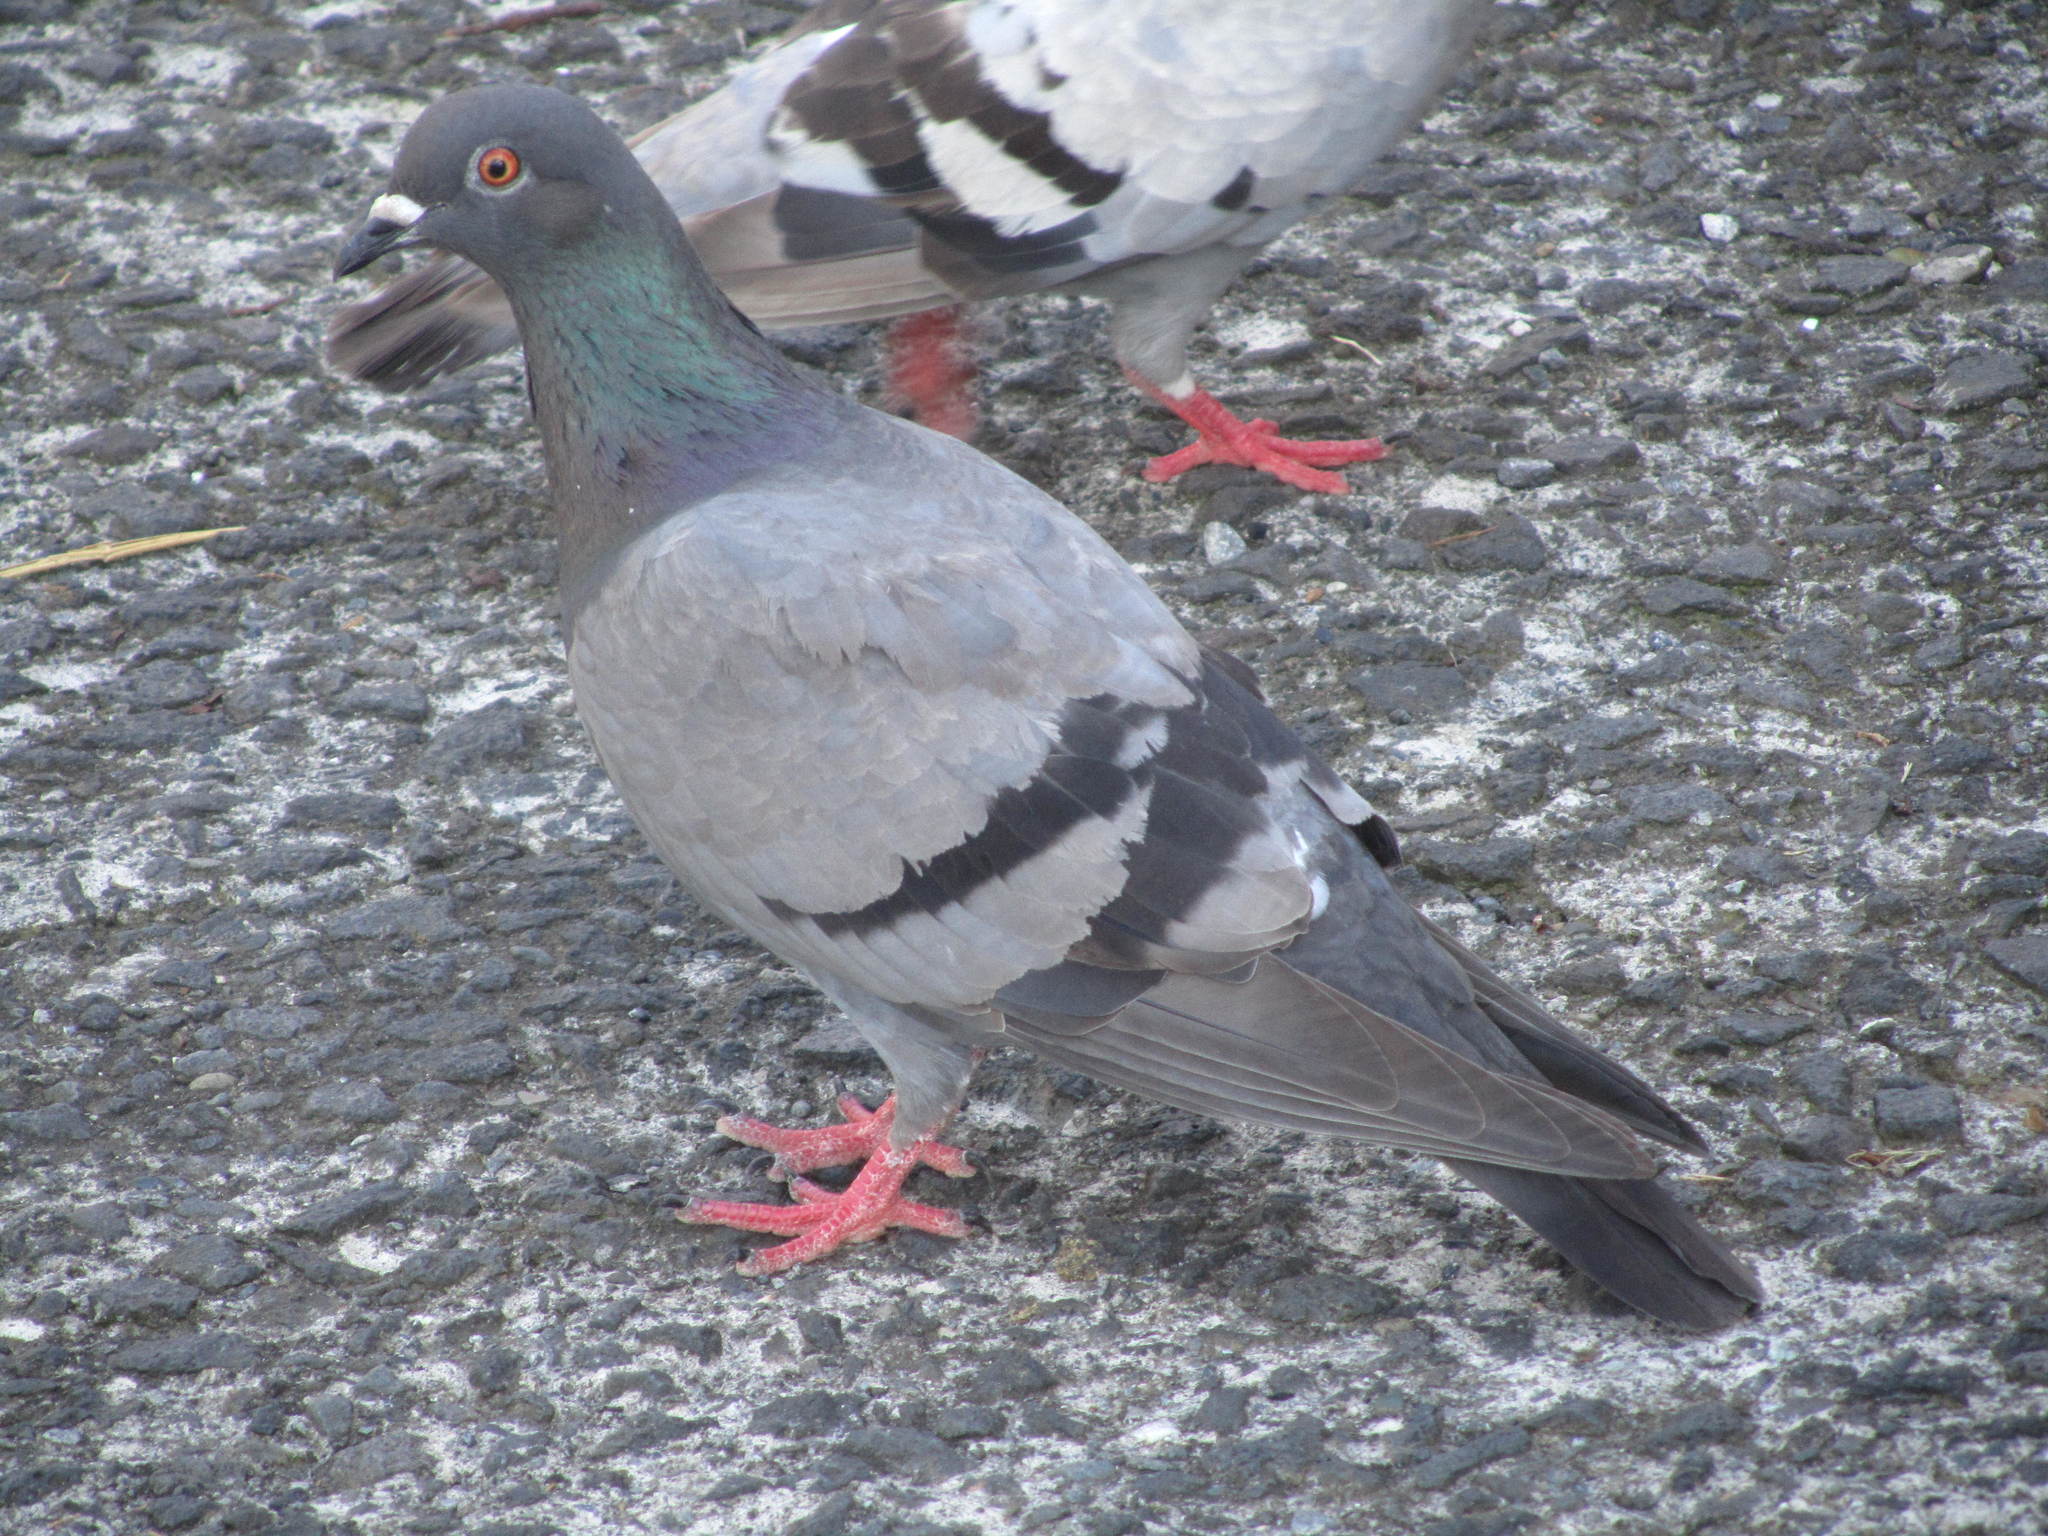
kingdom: Animalia
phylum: Chordata
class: Aves
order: Columbiformes
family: Columbidae
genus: Columba
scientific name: Columba livia
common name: Rock pigeon
